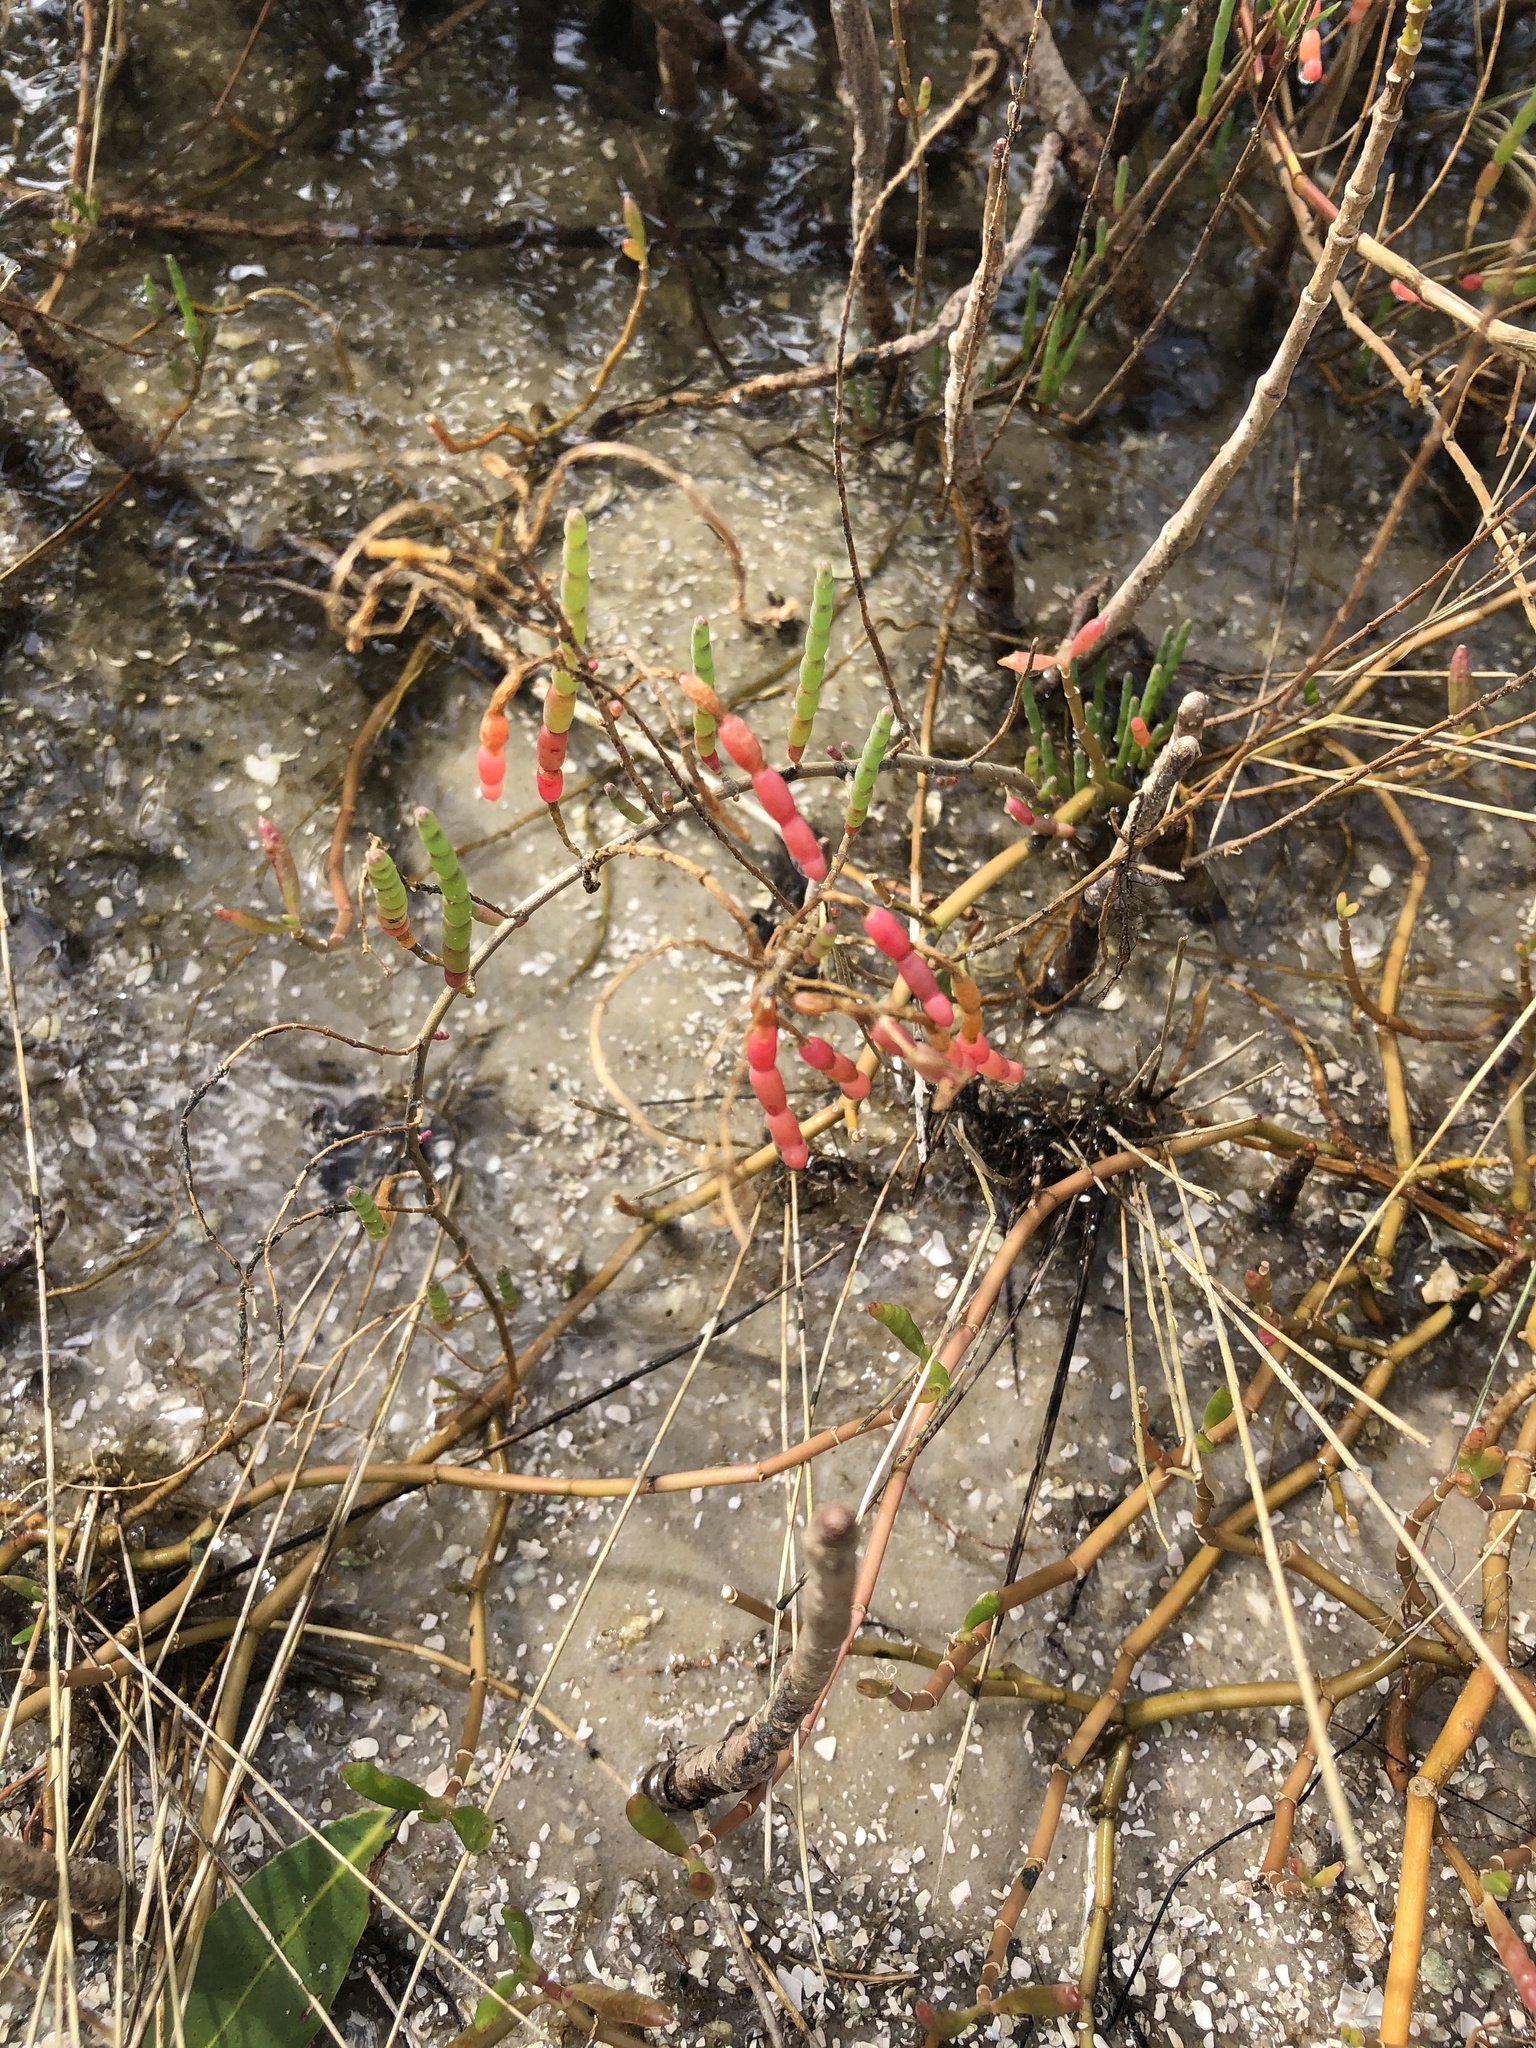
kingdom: Plantae
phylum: Tracheophyta
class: Magnoliopsida
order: Caryophyllales
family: Amaranthaceae
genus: Salicornia
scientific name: Salicornia ambigua
